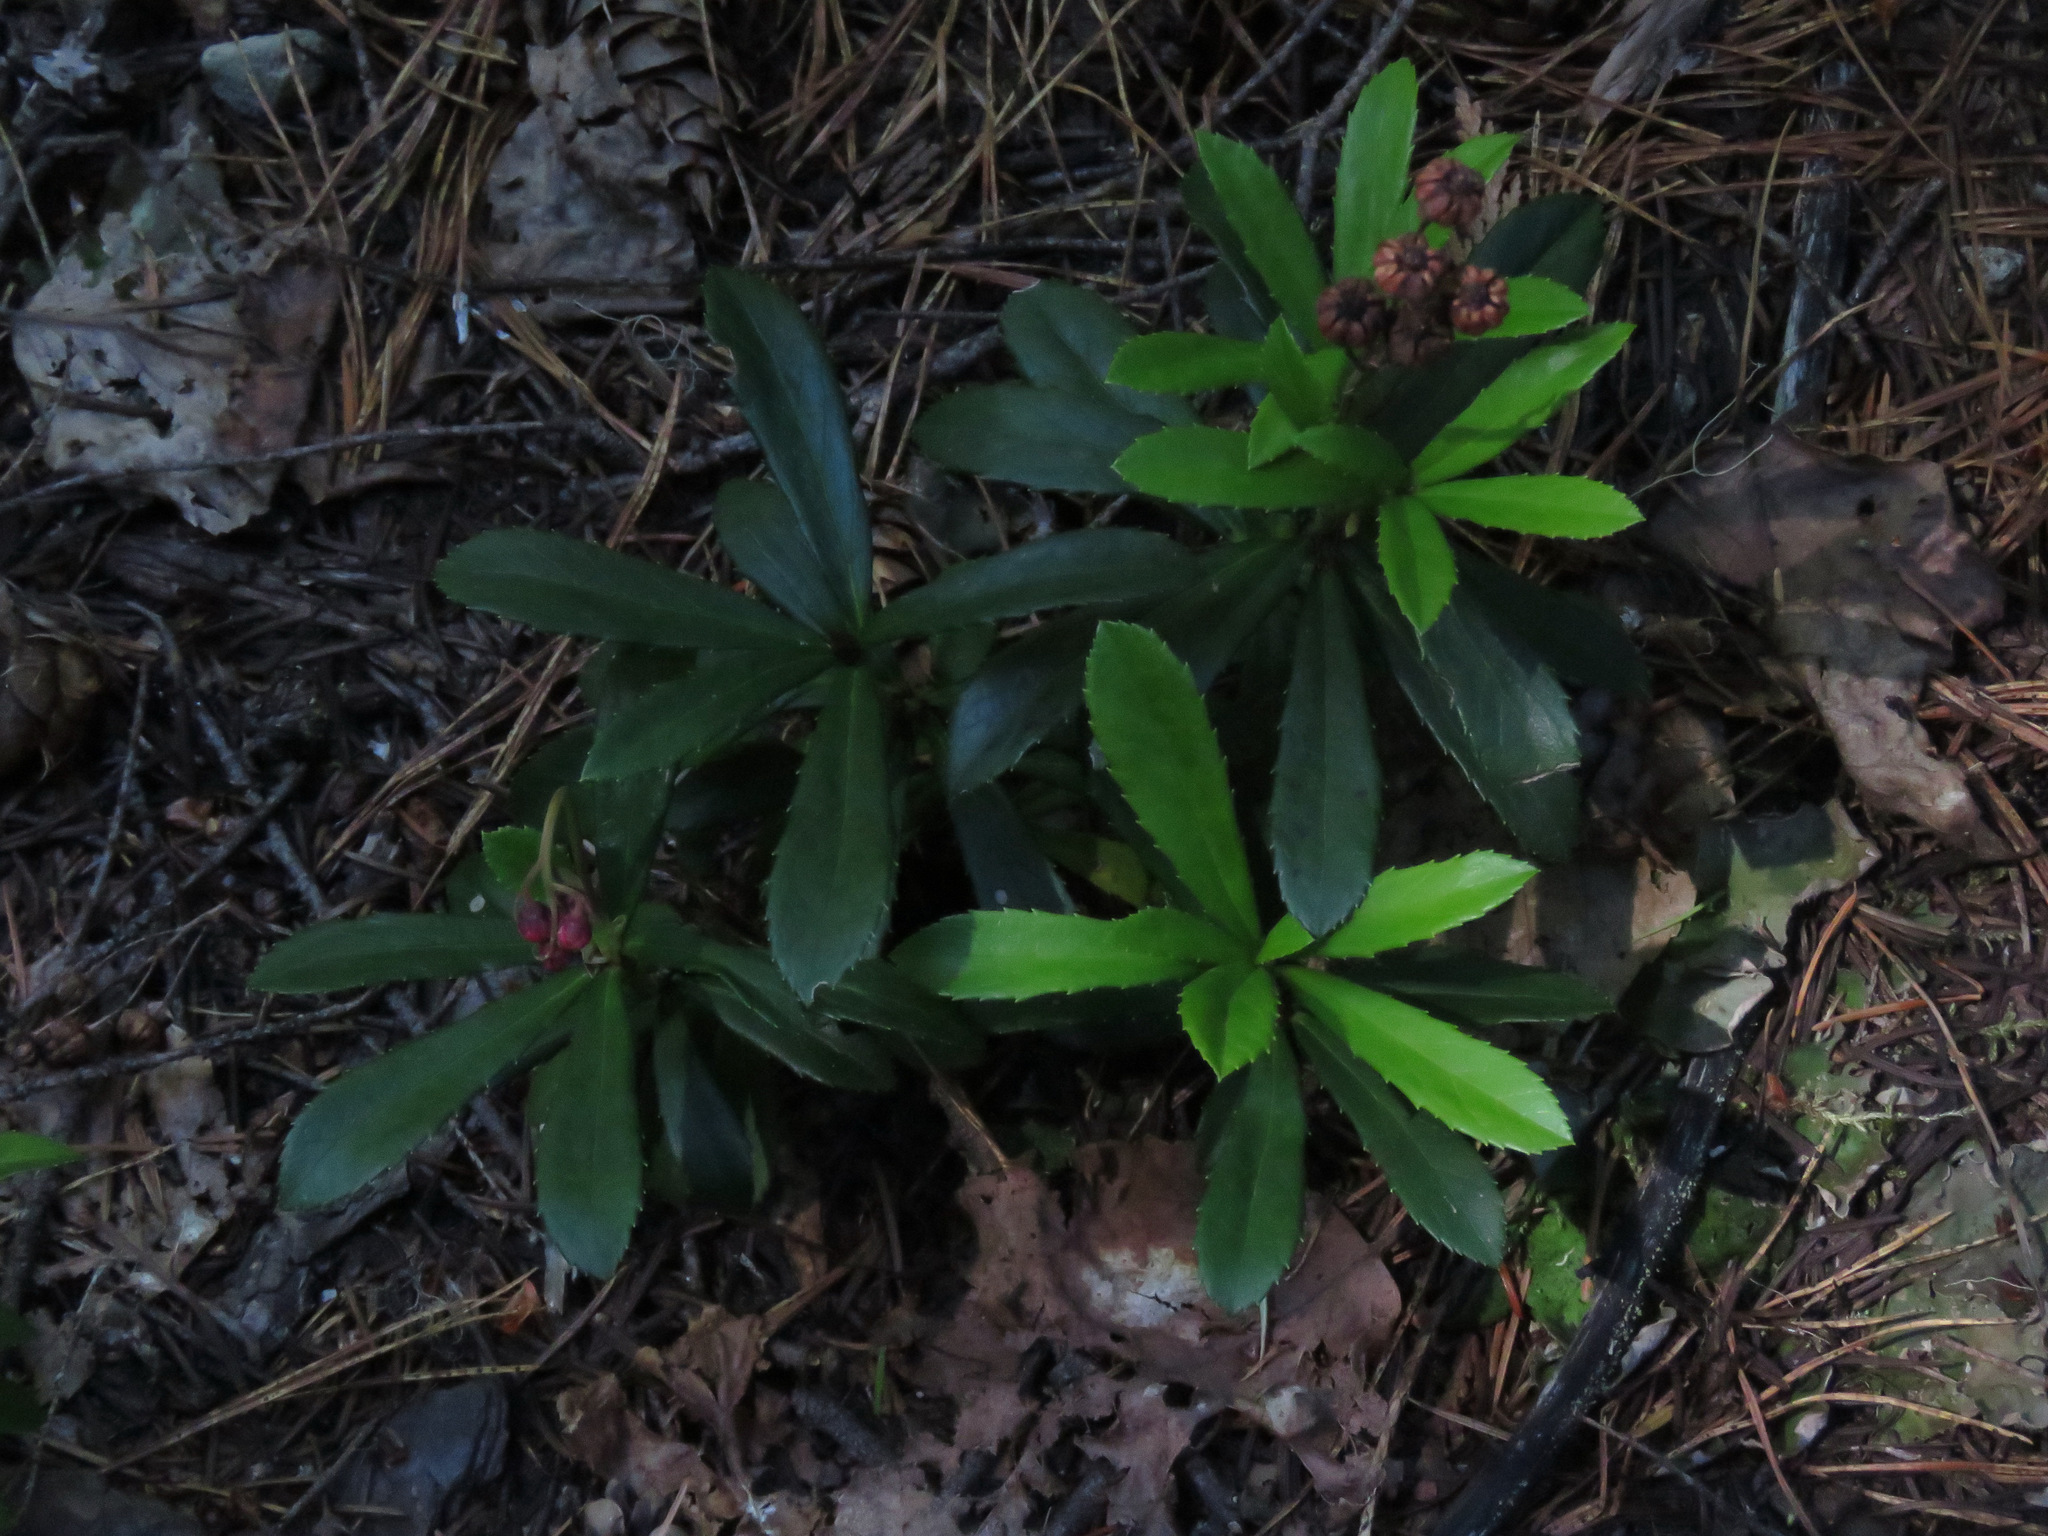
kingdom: Plantae
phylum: Tracheophyta
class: Magnoliopsida
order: Ericales
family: Ericaceae
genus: Chimaphila
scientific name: Chimaphila umbellata
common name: Pipsissewa
